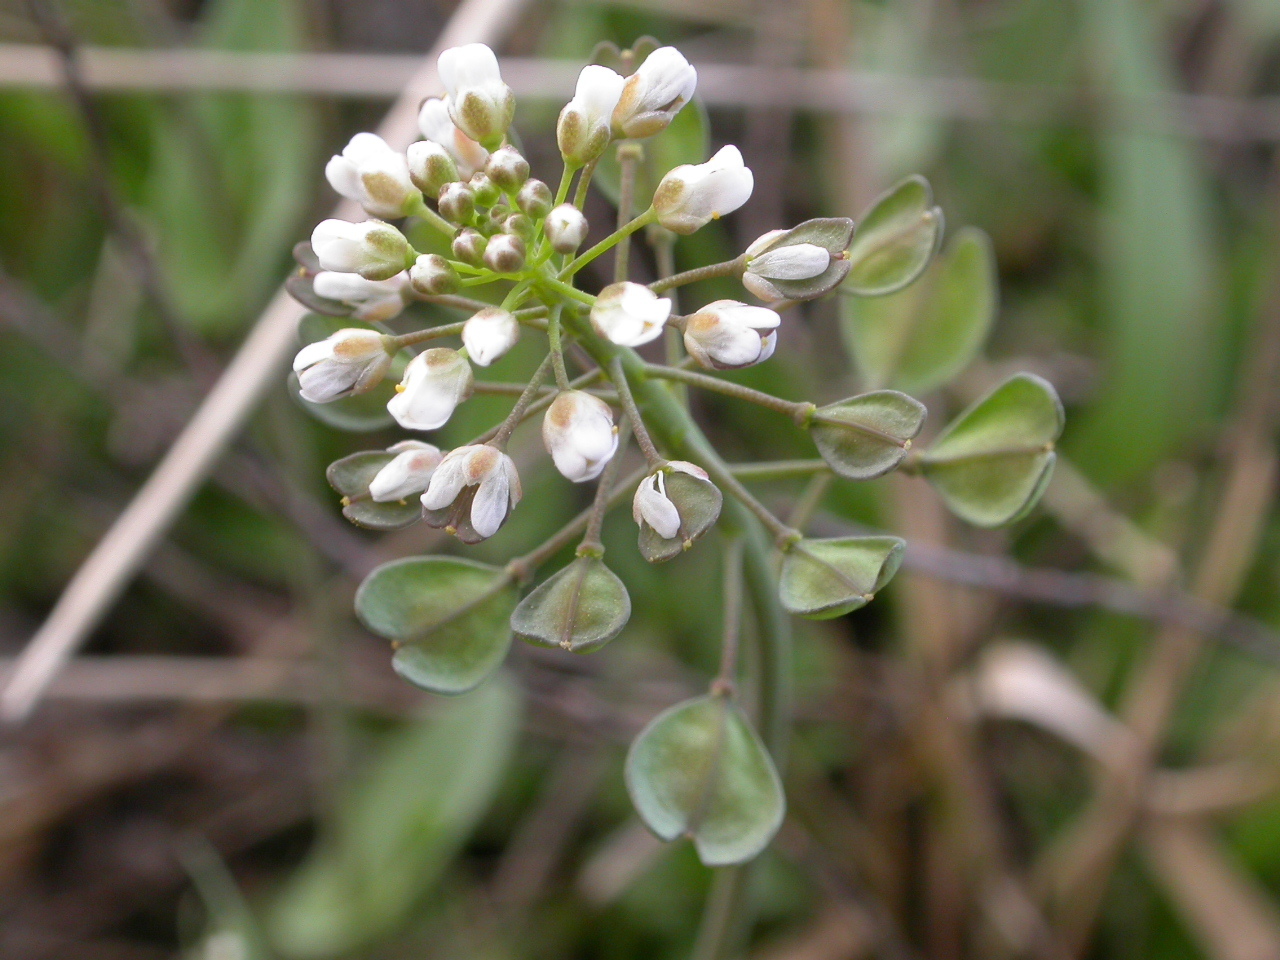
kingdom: Plantae
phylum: Tracheophyta
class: Magnoliopsida
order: Brassicales
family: Brassicaceae
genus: Noccaea
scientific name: Noccaea perfoliata
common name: Perfoliate pennycress
